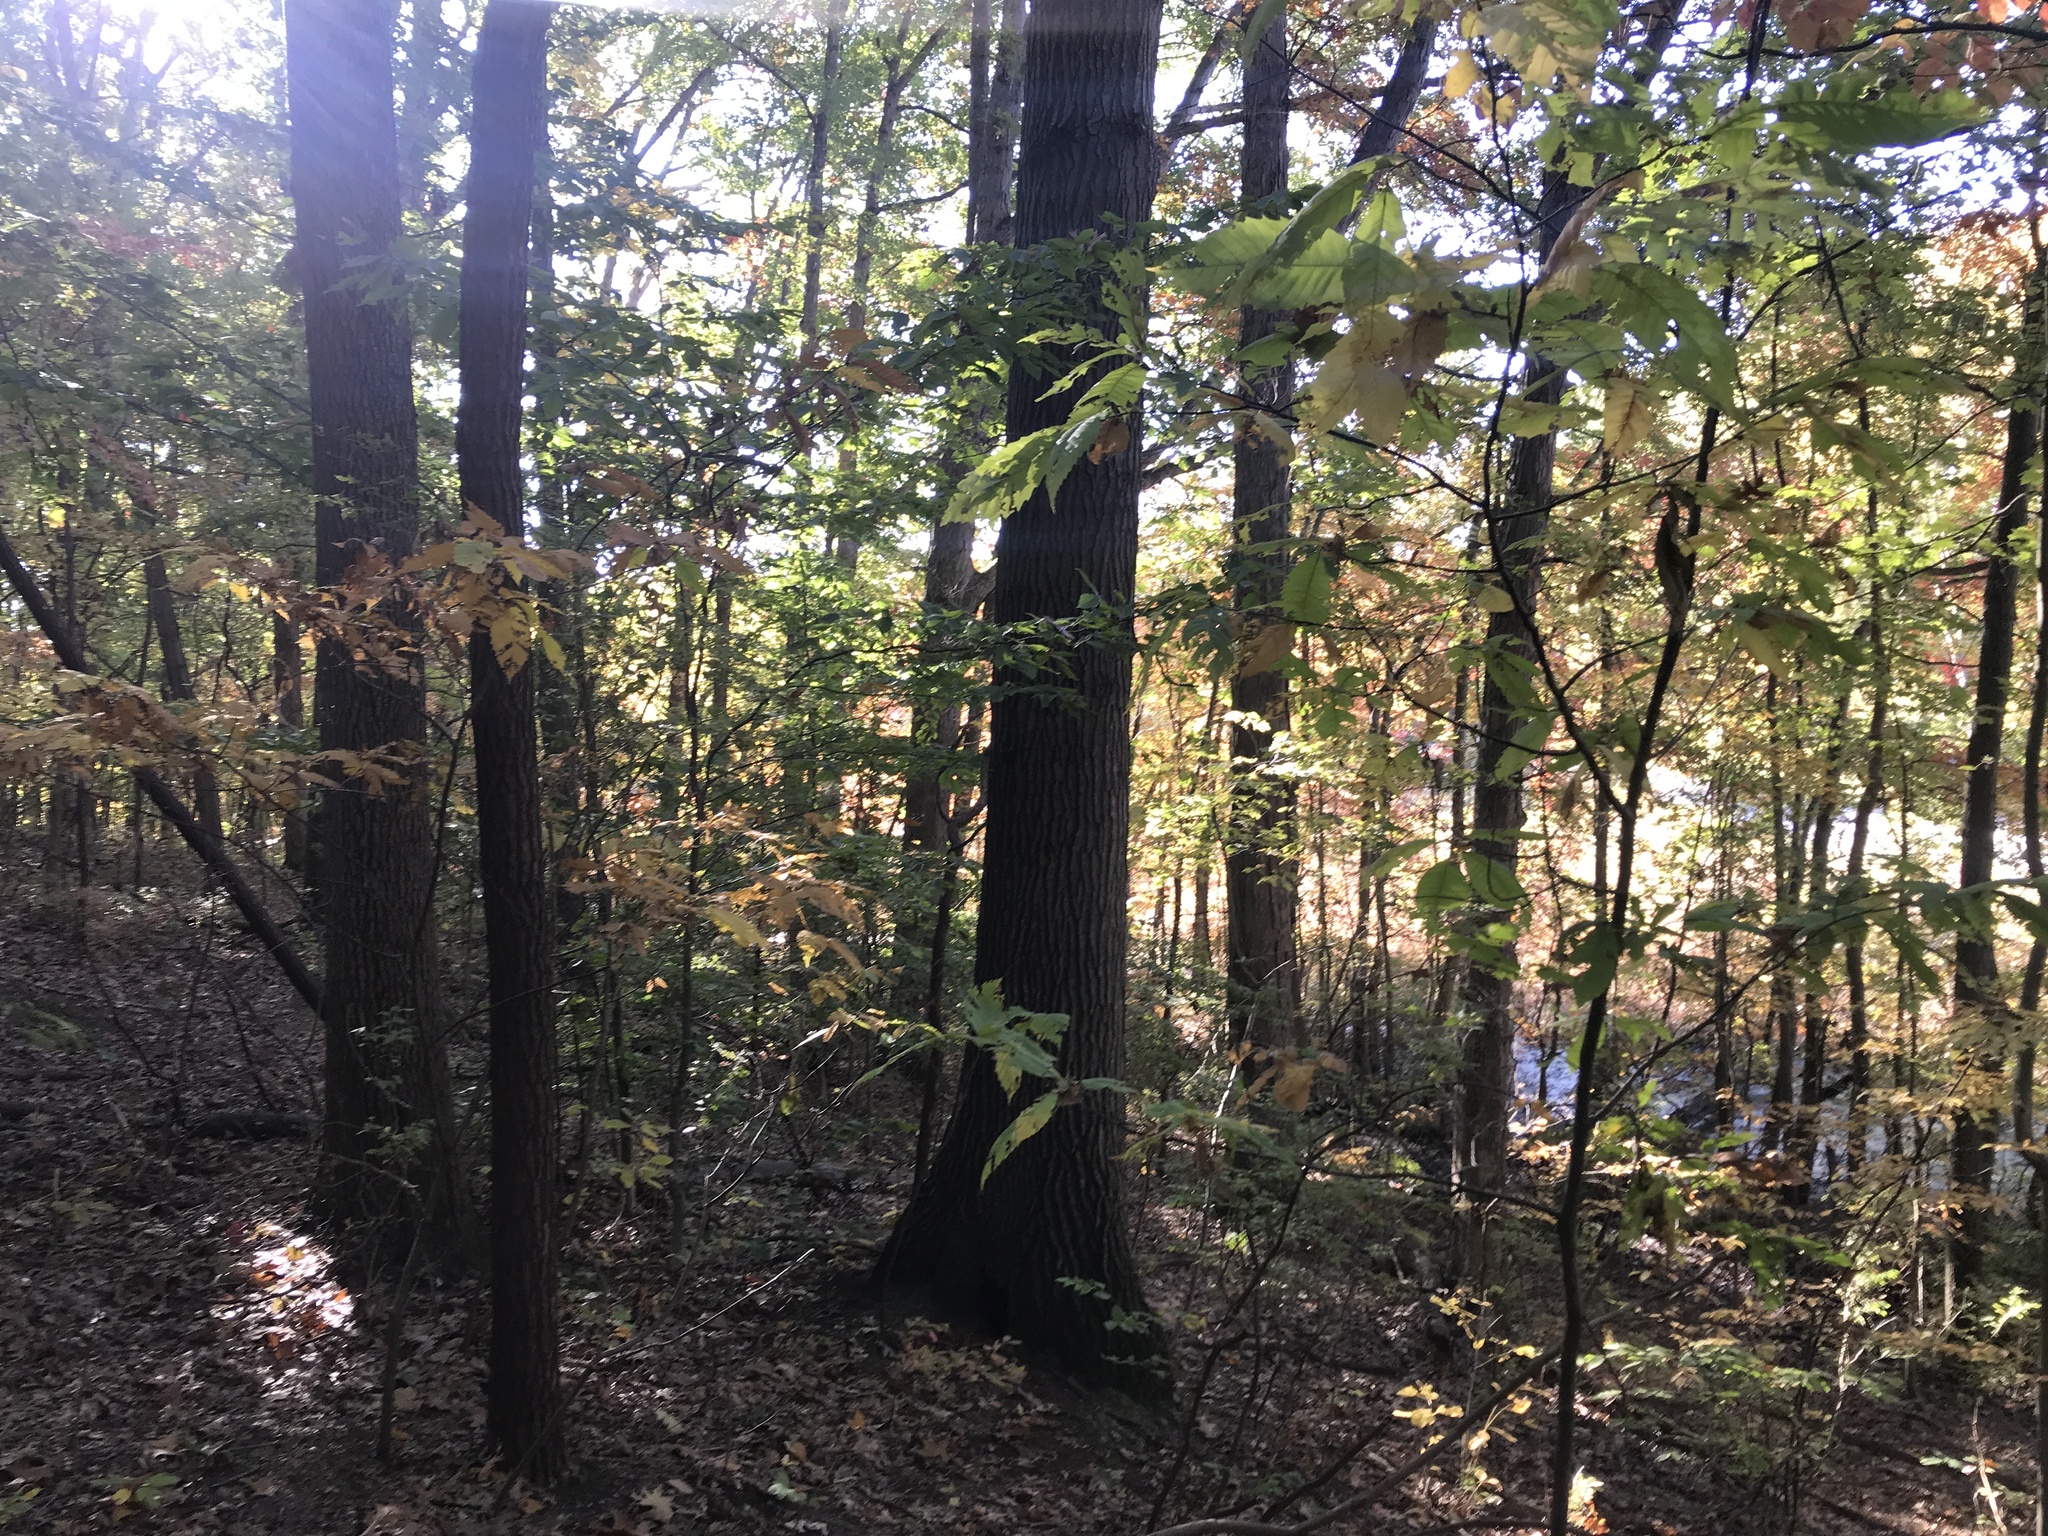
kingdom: Plantae
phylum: Tracheophyta
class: Magnoliopsida
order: Fagales
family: Fagaceae
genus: Castanea
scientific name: Castanea dentata
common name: American chestnut
